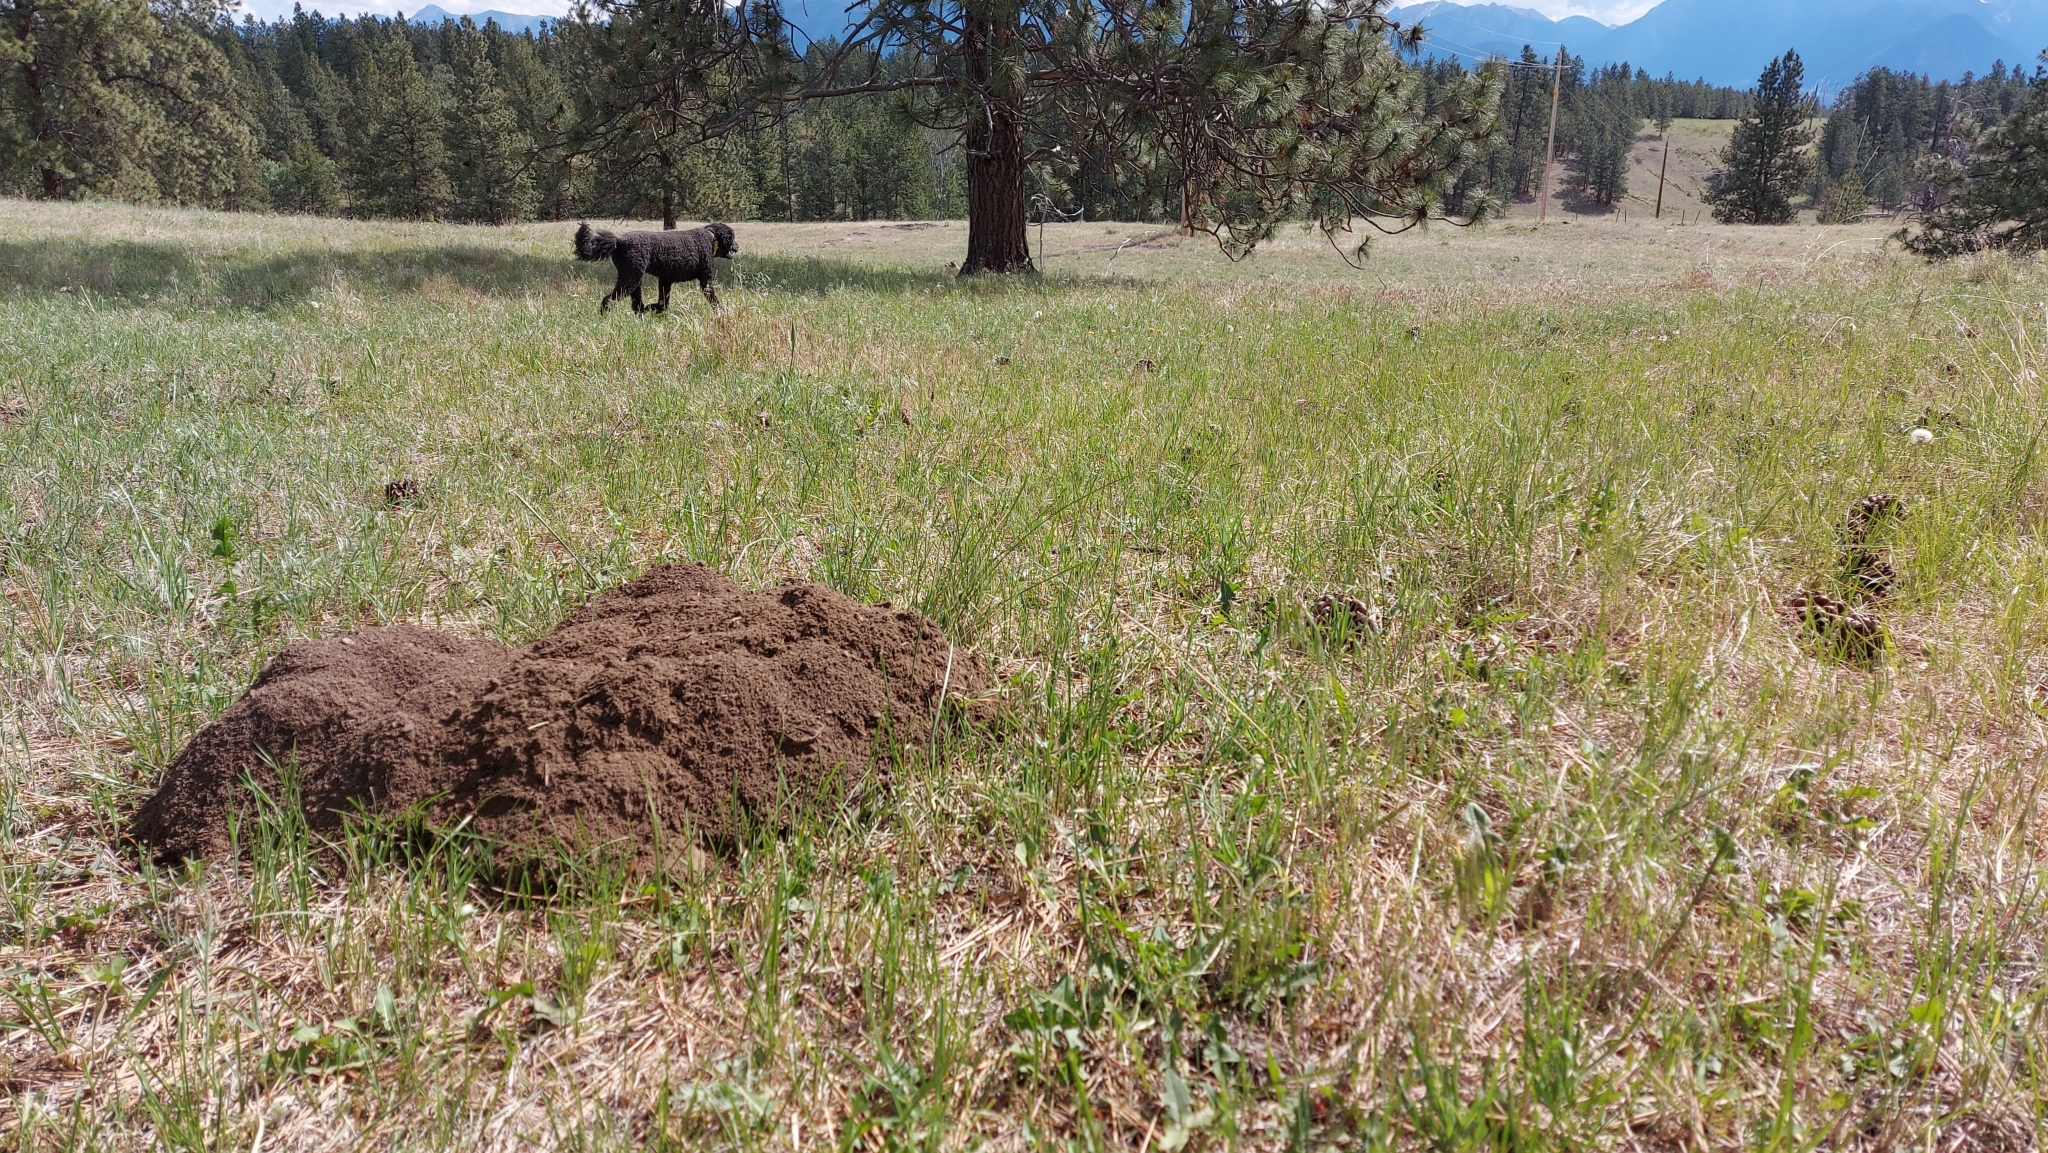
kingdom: Animalia
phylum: Chordata
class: Mammalia
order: Rodentia
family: Geomyidae
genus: Thomomys
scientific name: Thomomys talpoides
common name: Northern pocket gopher
